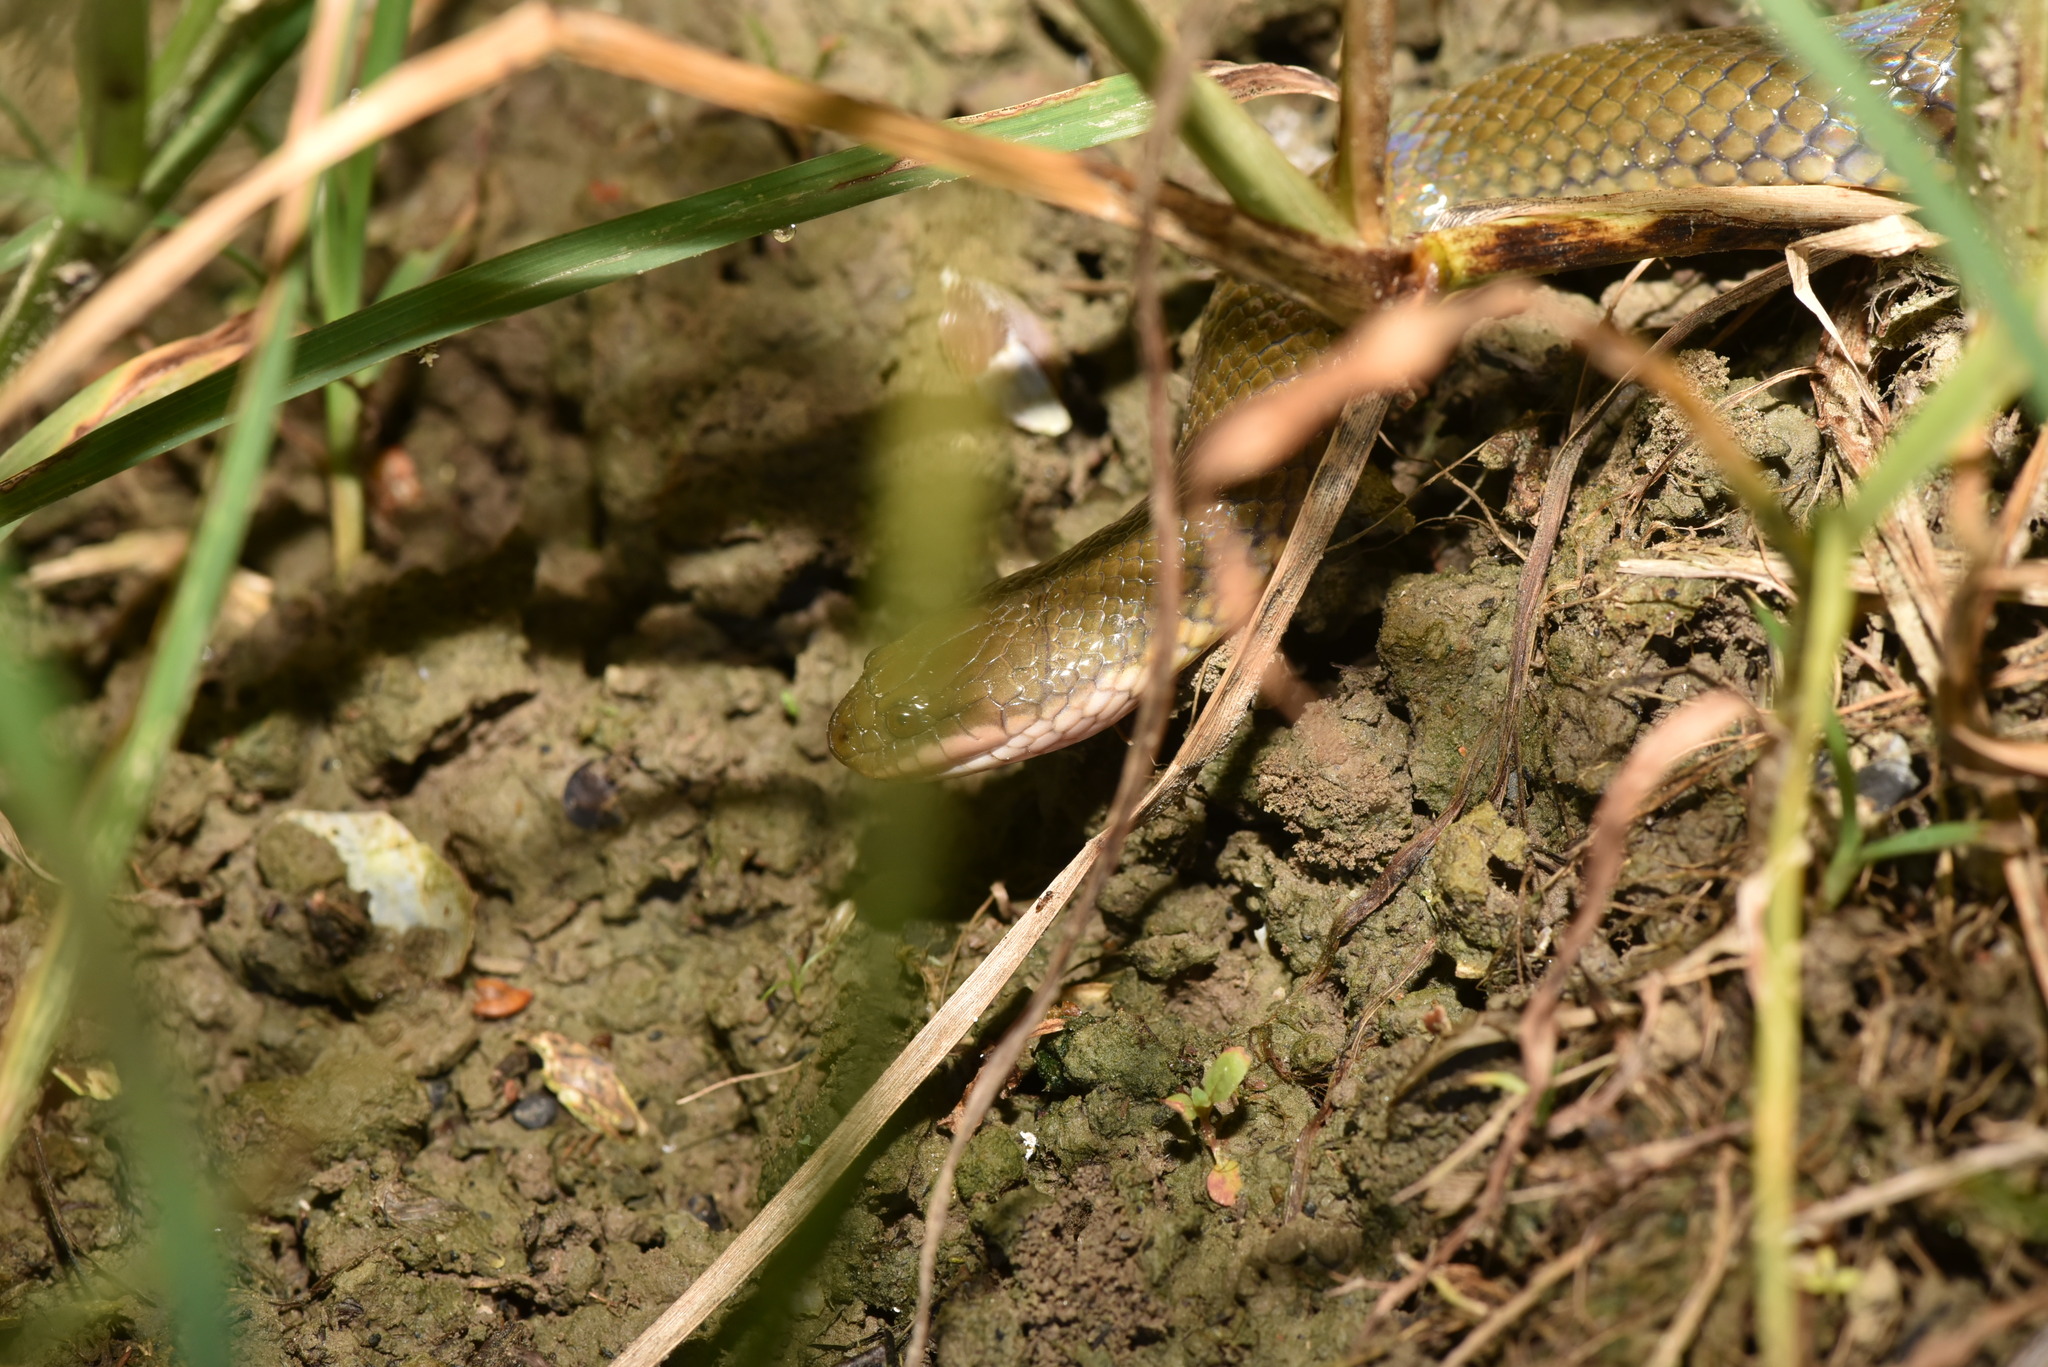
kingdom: Animalia
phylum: Chordata
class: Squamata
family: Homalopsidae
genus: Hypsiscopus
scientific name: Hypsiscopus
